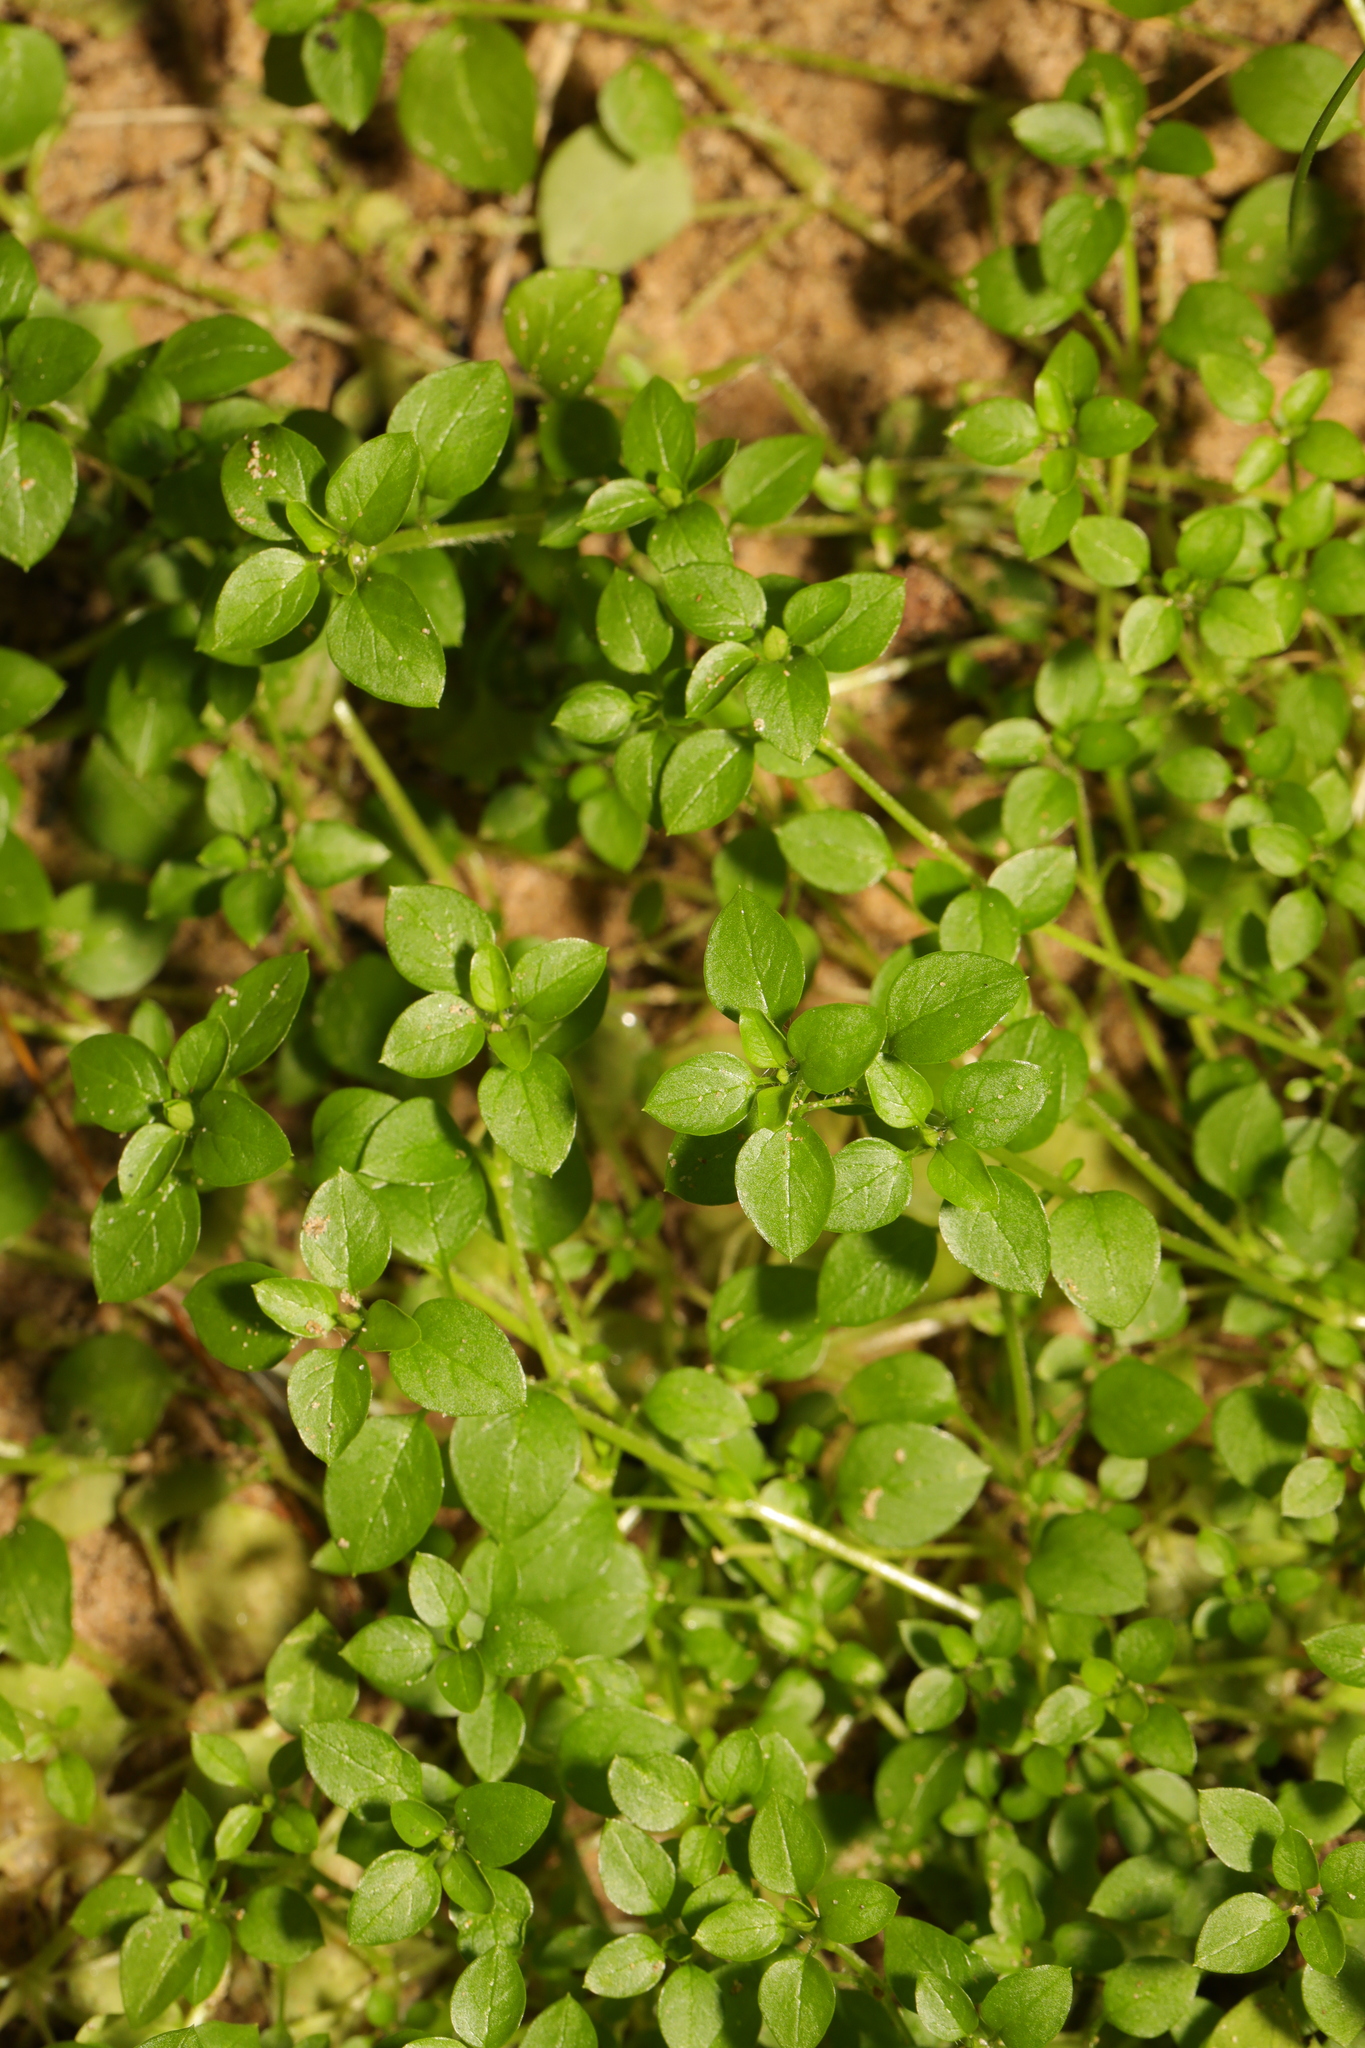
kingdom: Plantae
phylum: Tracheophyta
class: Magnoliopsida
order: Caryophyllales
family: Caryophyllaceae
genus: Stellaria
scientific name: Stellaria media
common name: Common chickweed
